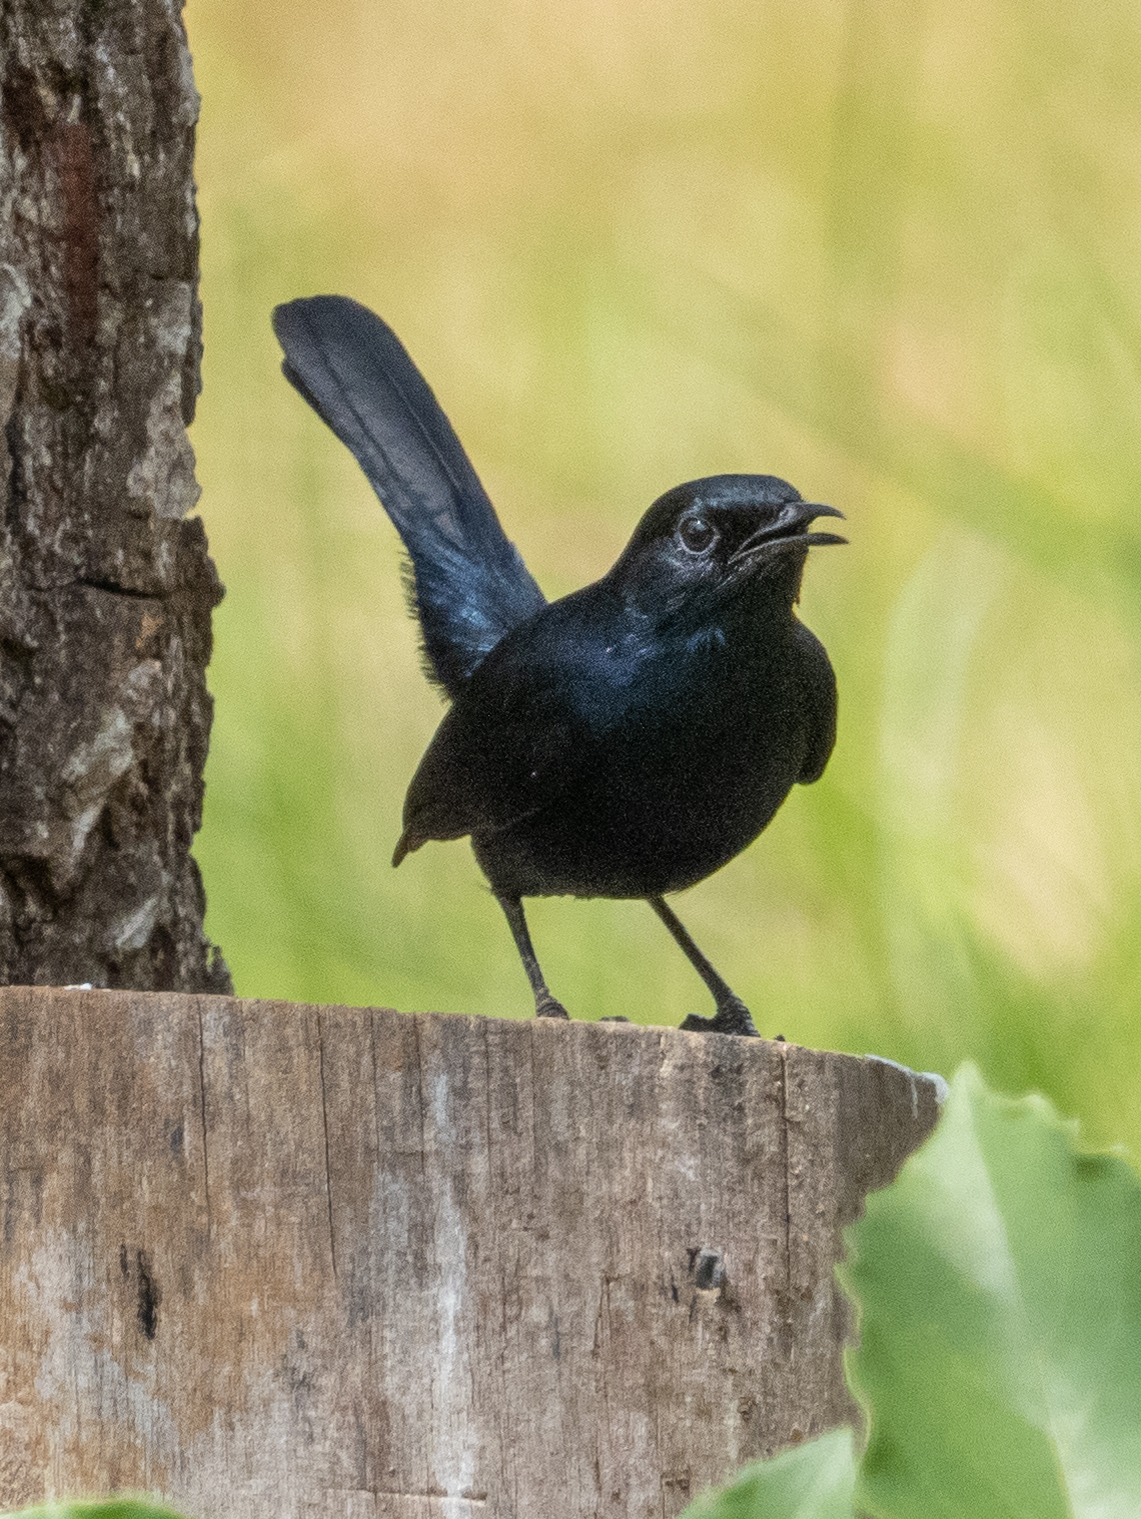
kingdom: Animalia
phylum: Chordata
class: Aves
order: Passeriformes
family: Muscicapidae
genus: Saxicoloides
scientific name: Saxicoloides fulicatus
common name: Indian robin
